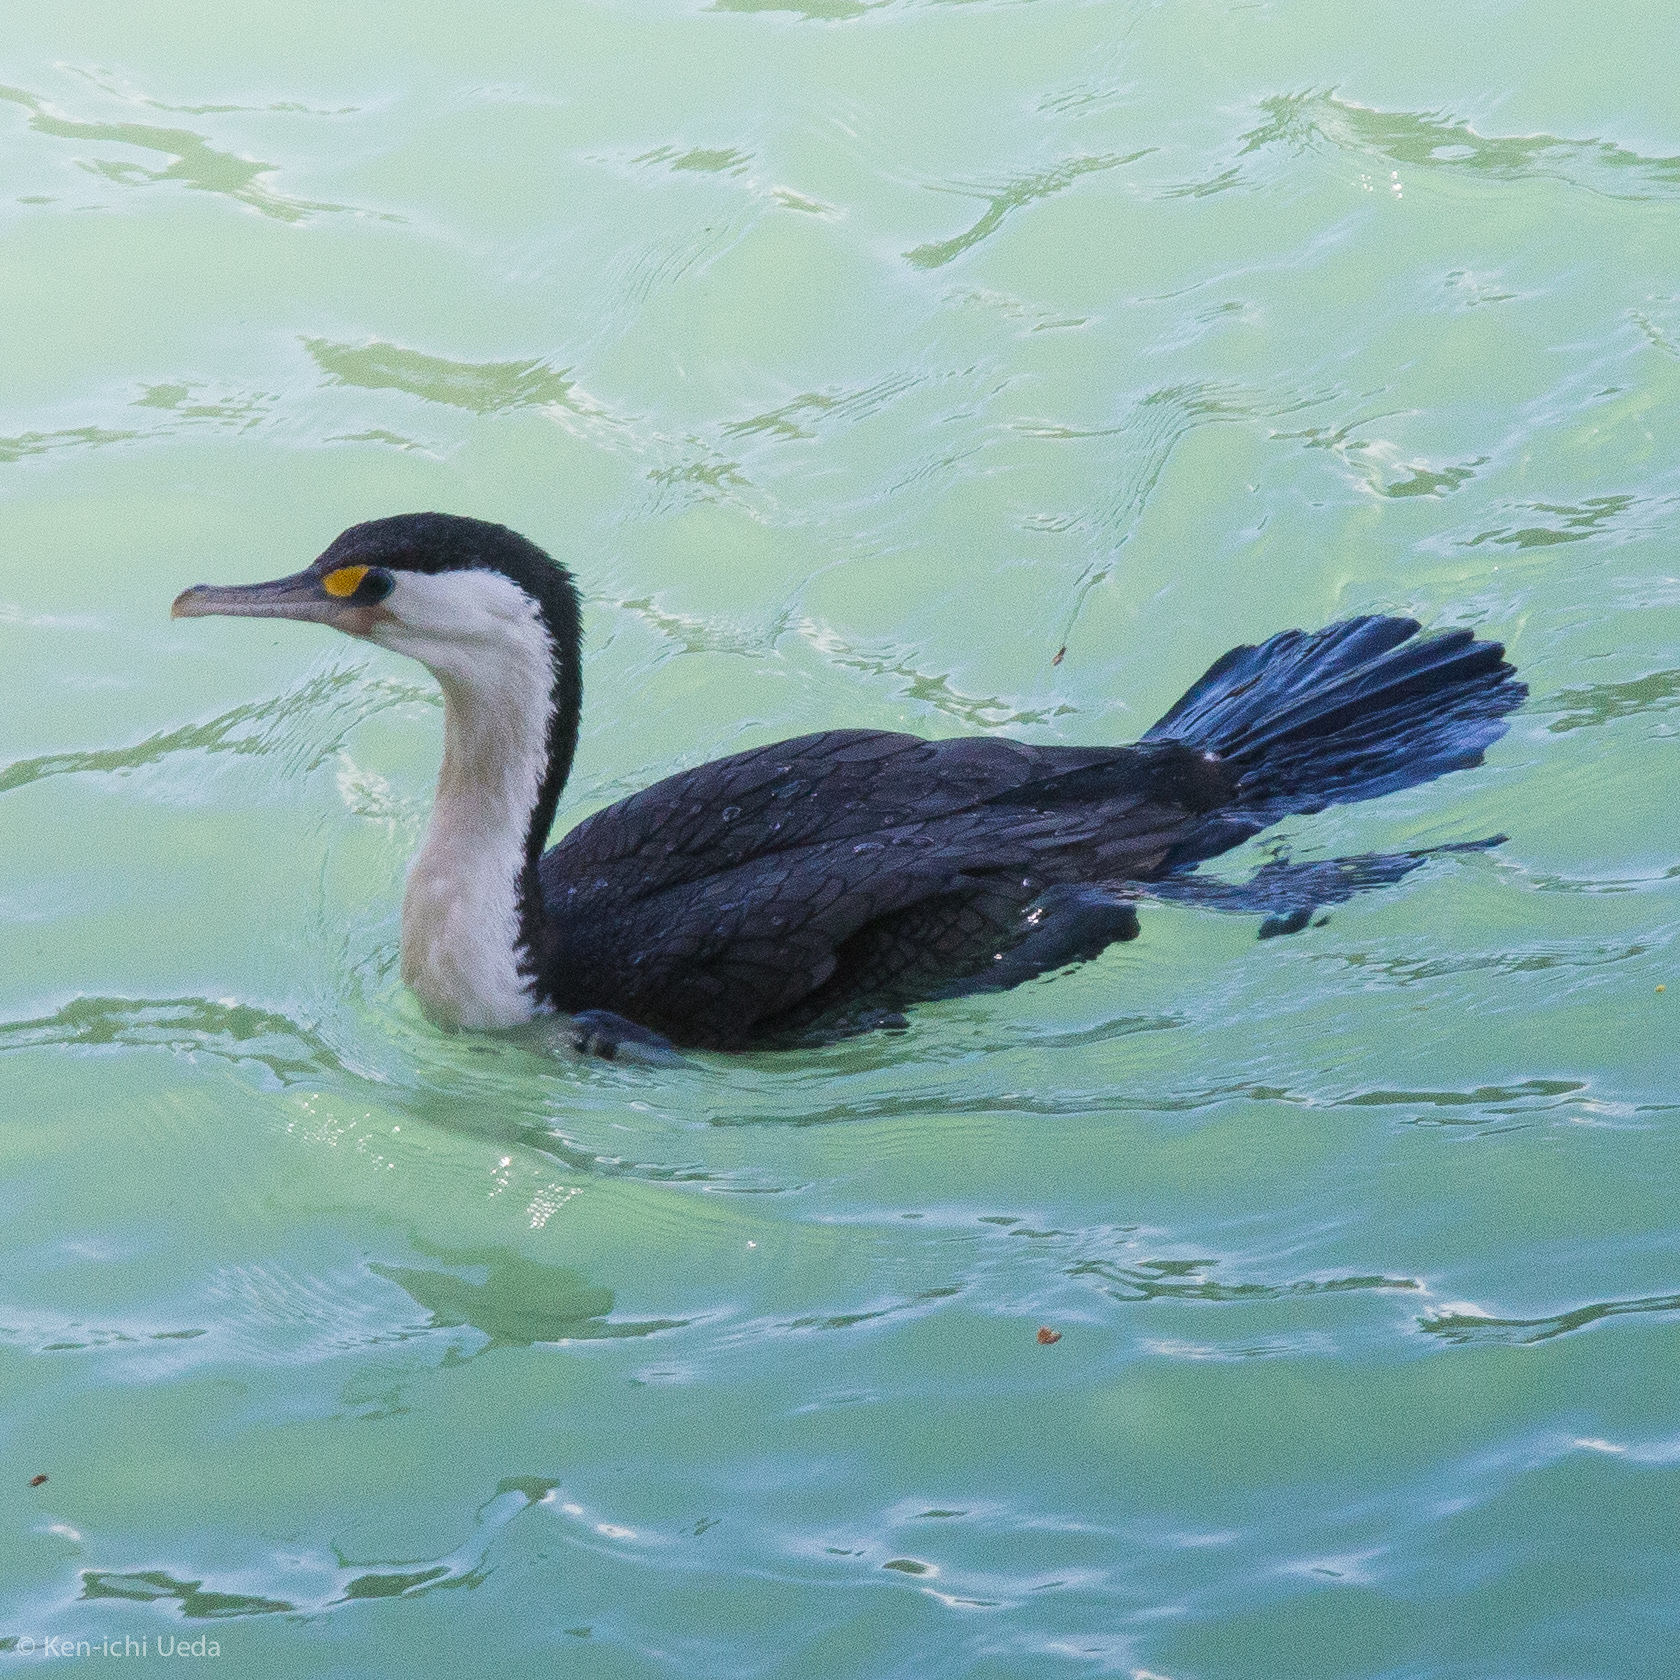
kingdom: Animalia
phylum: Chordata
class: Aves
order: Suliformes
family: Phalacrocoracidae
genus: Phalacrocorax
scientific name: Phalacrocorax varius
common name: Pied cormorant
